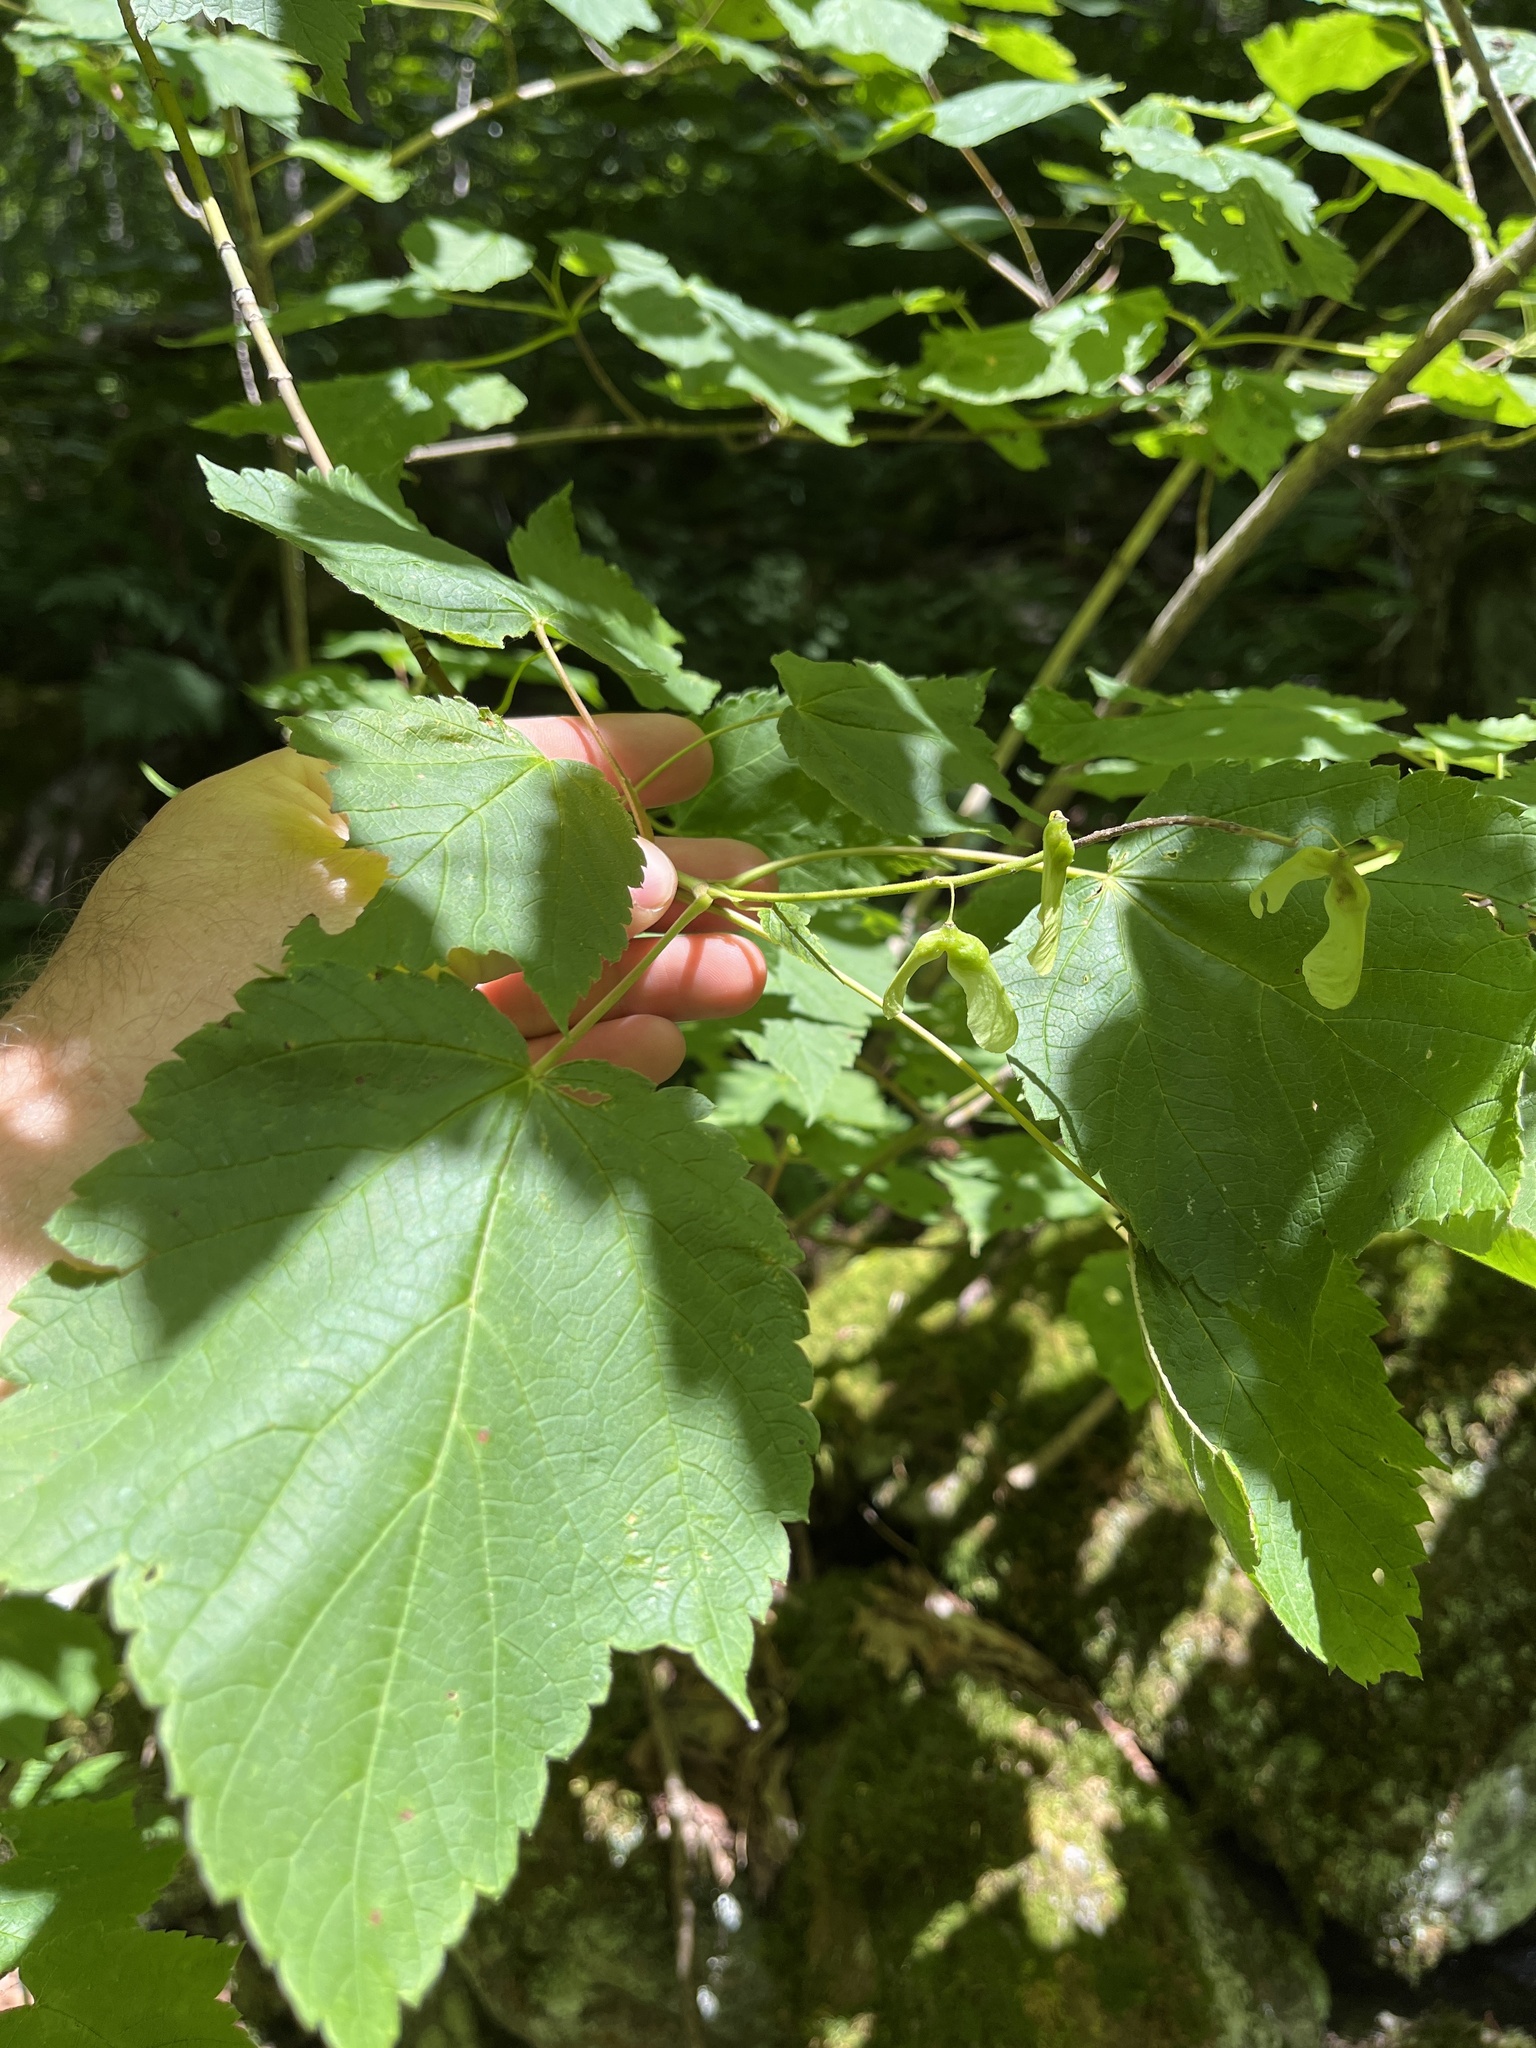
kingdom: Plantae
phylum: Tracheophyta
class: Magnoliopsida
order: Sapindales
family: Sapindaceae
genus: Acer
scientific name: Acer spicatum
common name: Mountain maple
